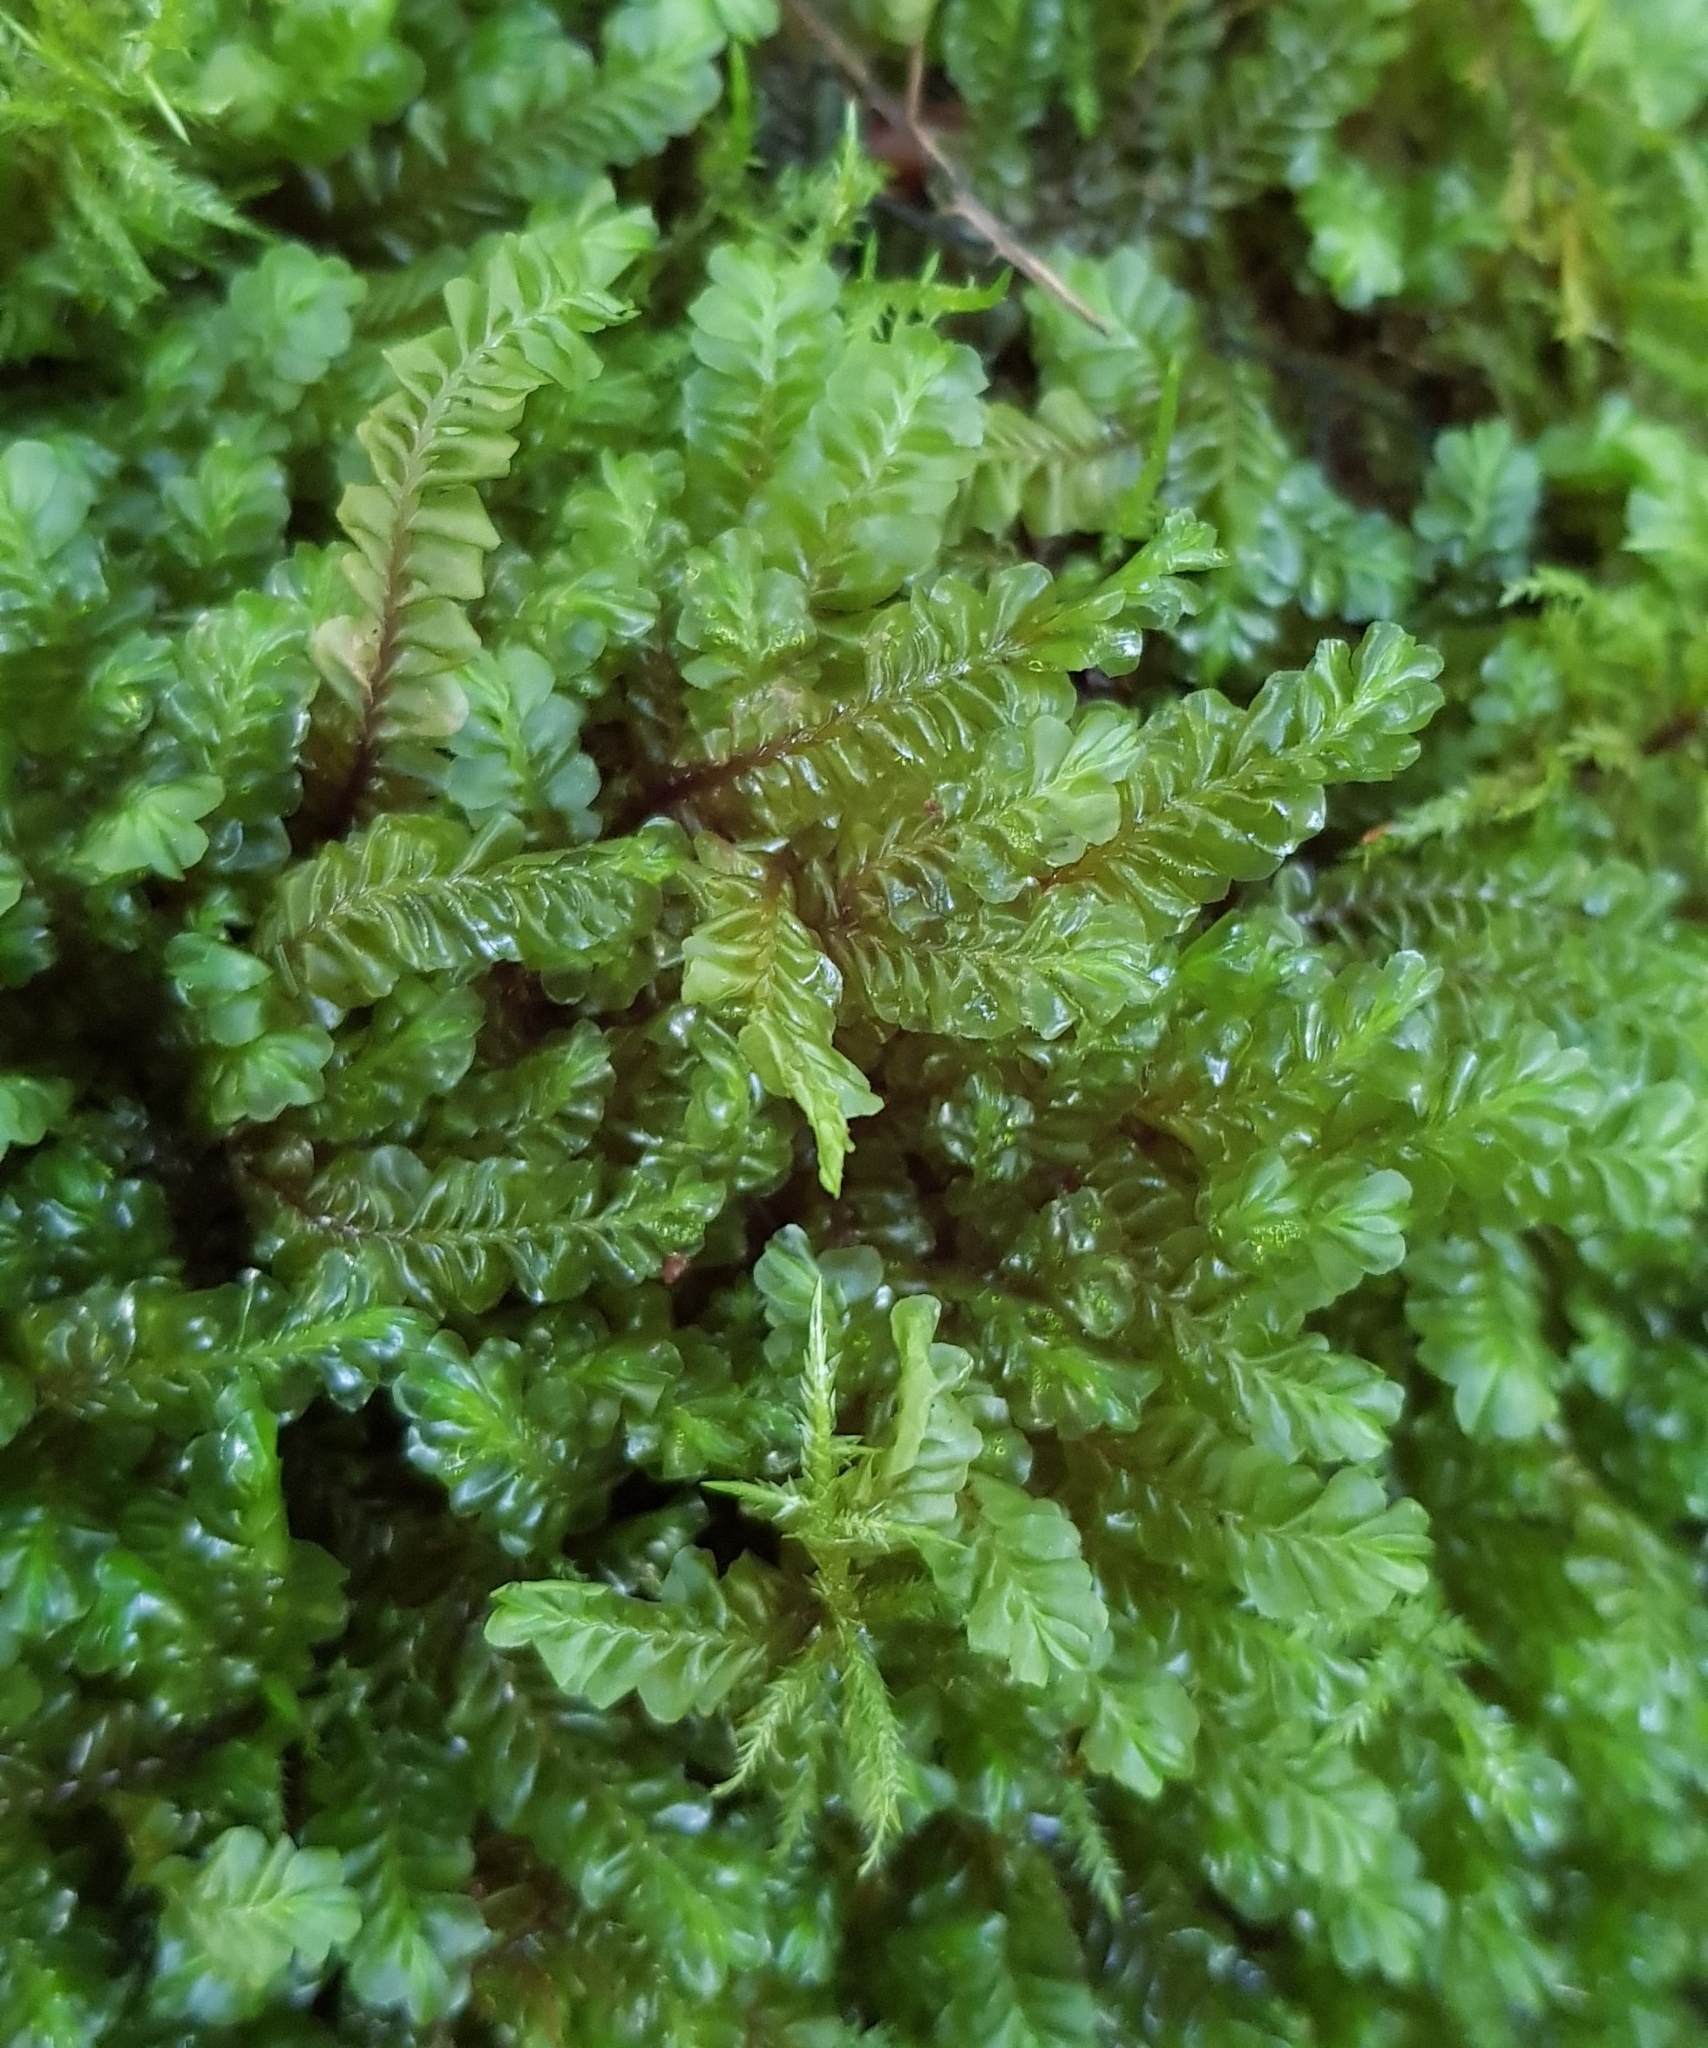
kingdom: Plantae
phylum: Marchantiophyta
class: Jungermanniopsida
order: Jungermanniales
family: Plagiochilaceae
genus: Plagiochila
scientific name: Plagiochila asplenioides
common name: Greater featherwort
